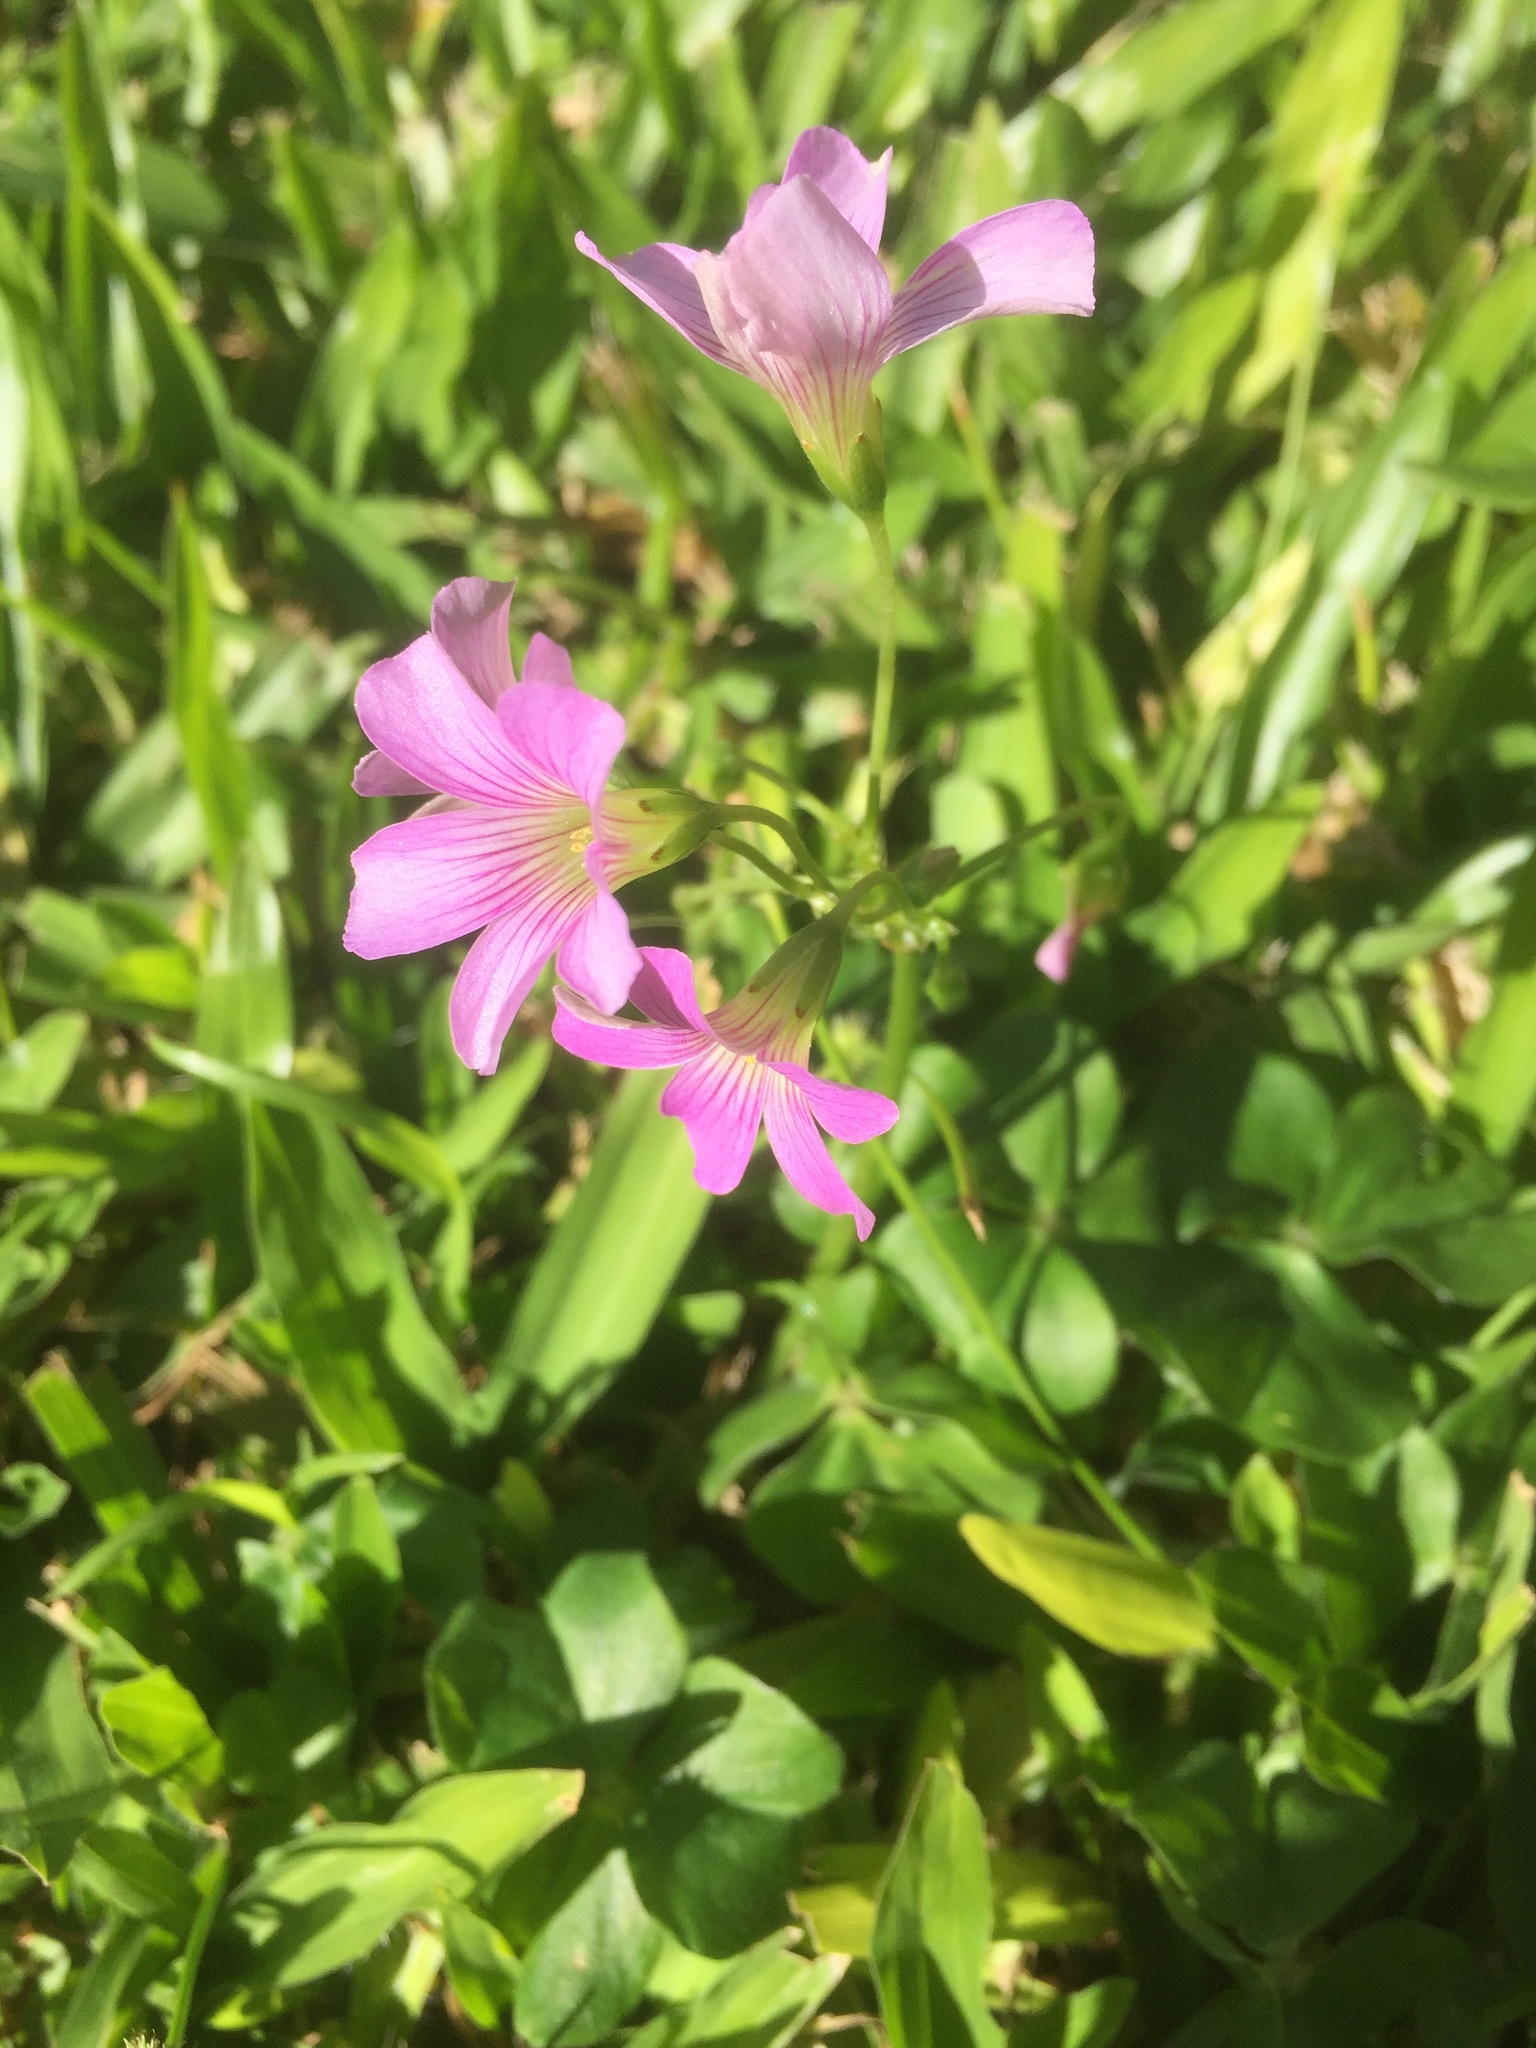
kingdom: Plantae
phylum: Tracheophyta
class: Magnoliopsida
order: Oxalidales
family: Oxalidaceae
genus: Oxalis
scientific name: Oxalis debilis
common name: Large-flowered pink-sorrel
